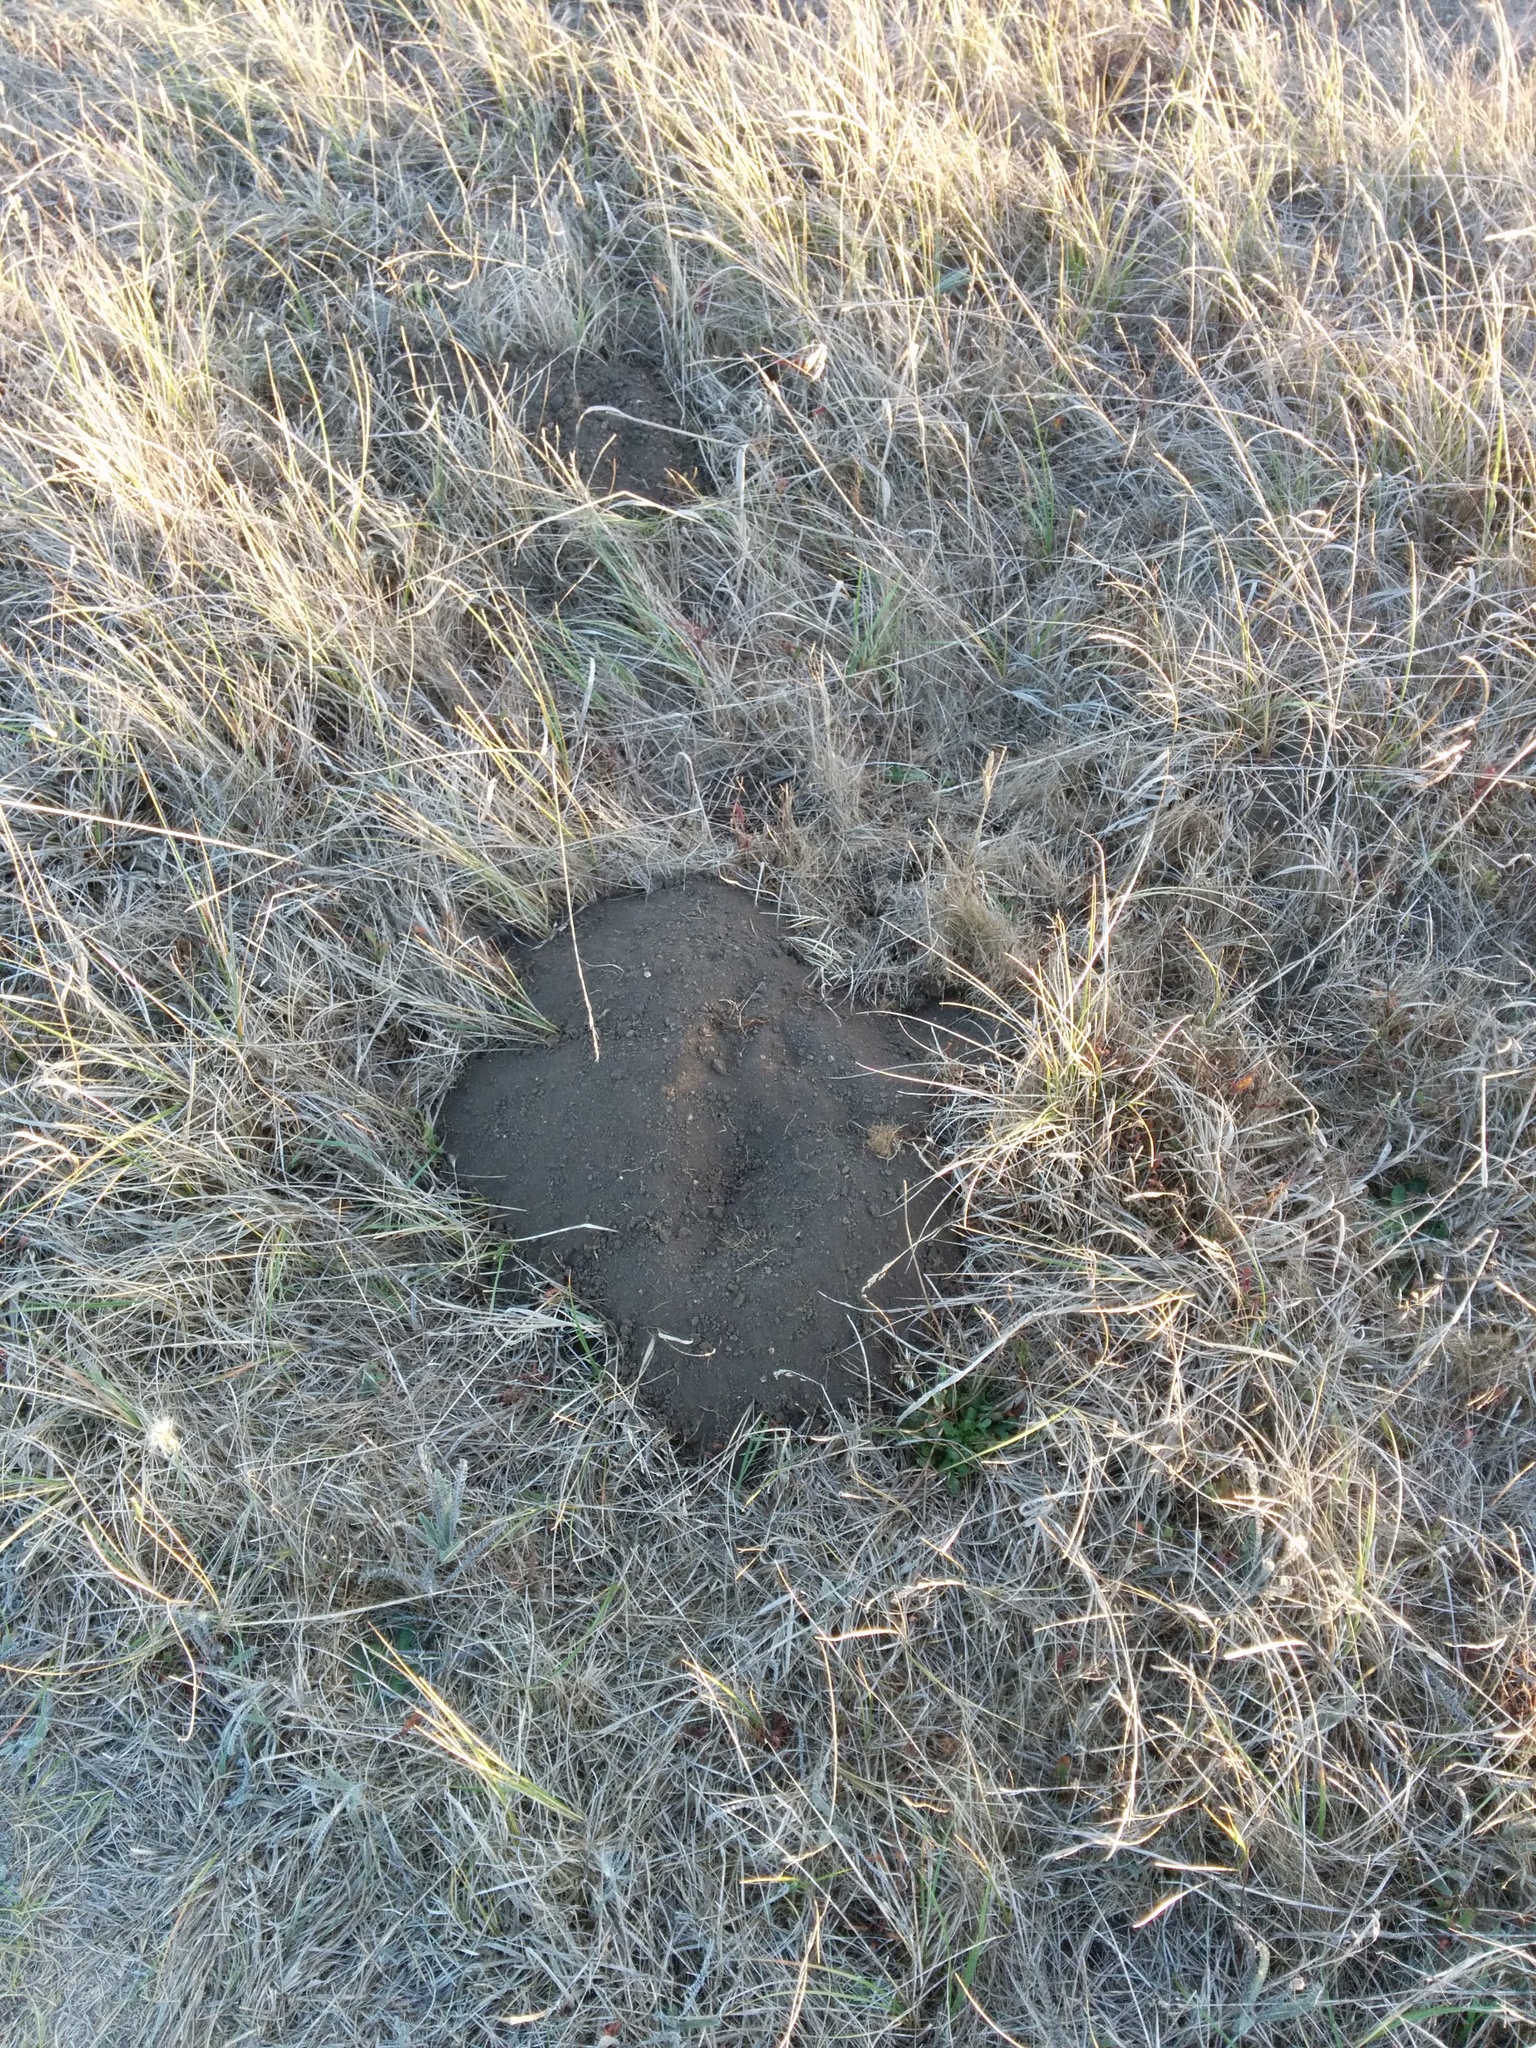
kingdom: Animalia
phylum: Chordata
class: Mammalia
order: Rodentia
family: Geomyidae
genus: Thomomys
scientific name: Thomomys bottae
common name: Botta's pocket gopher
